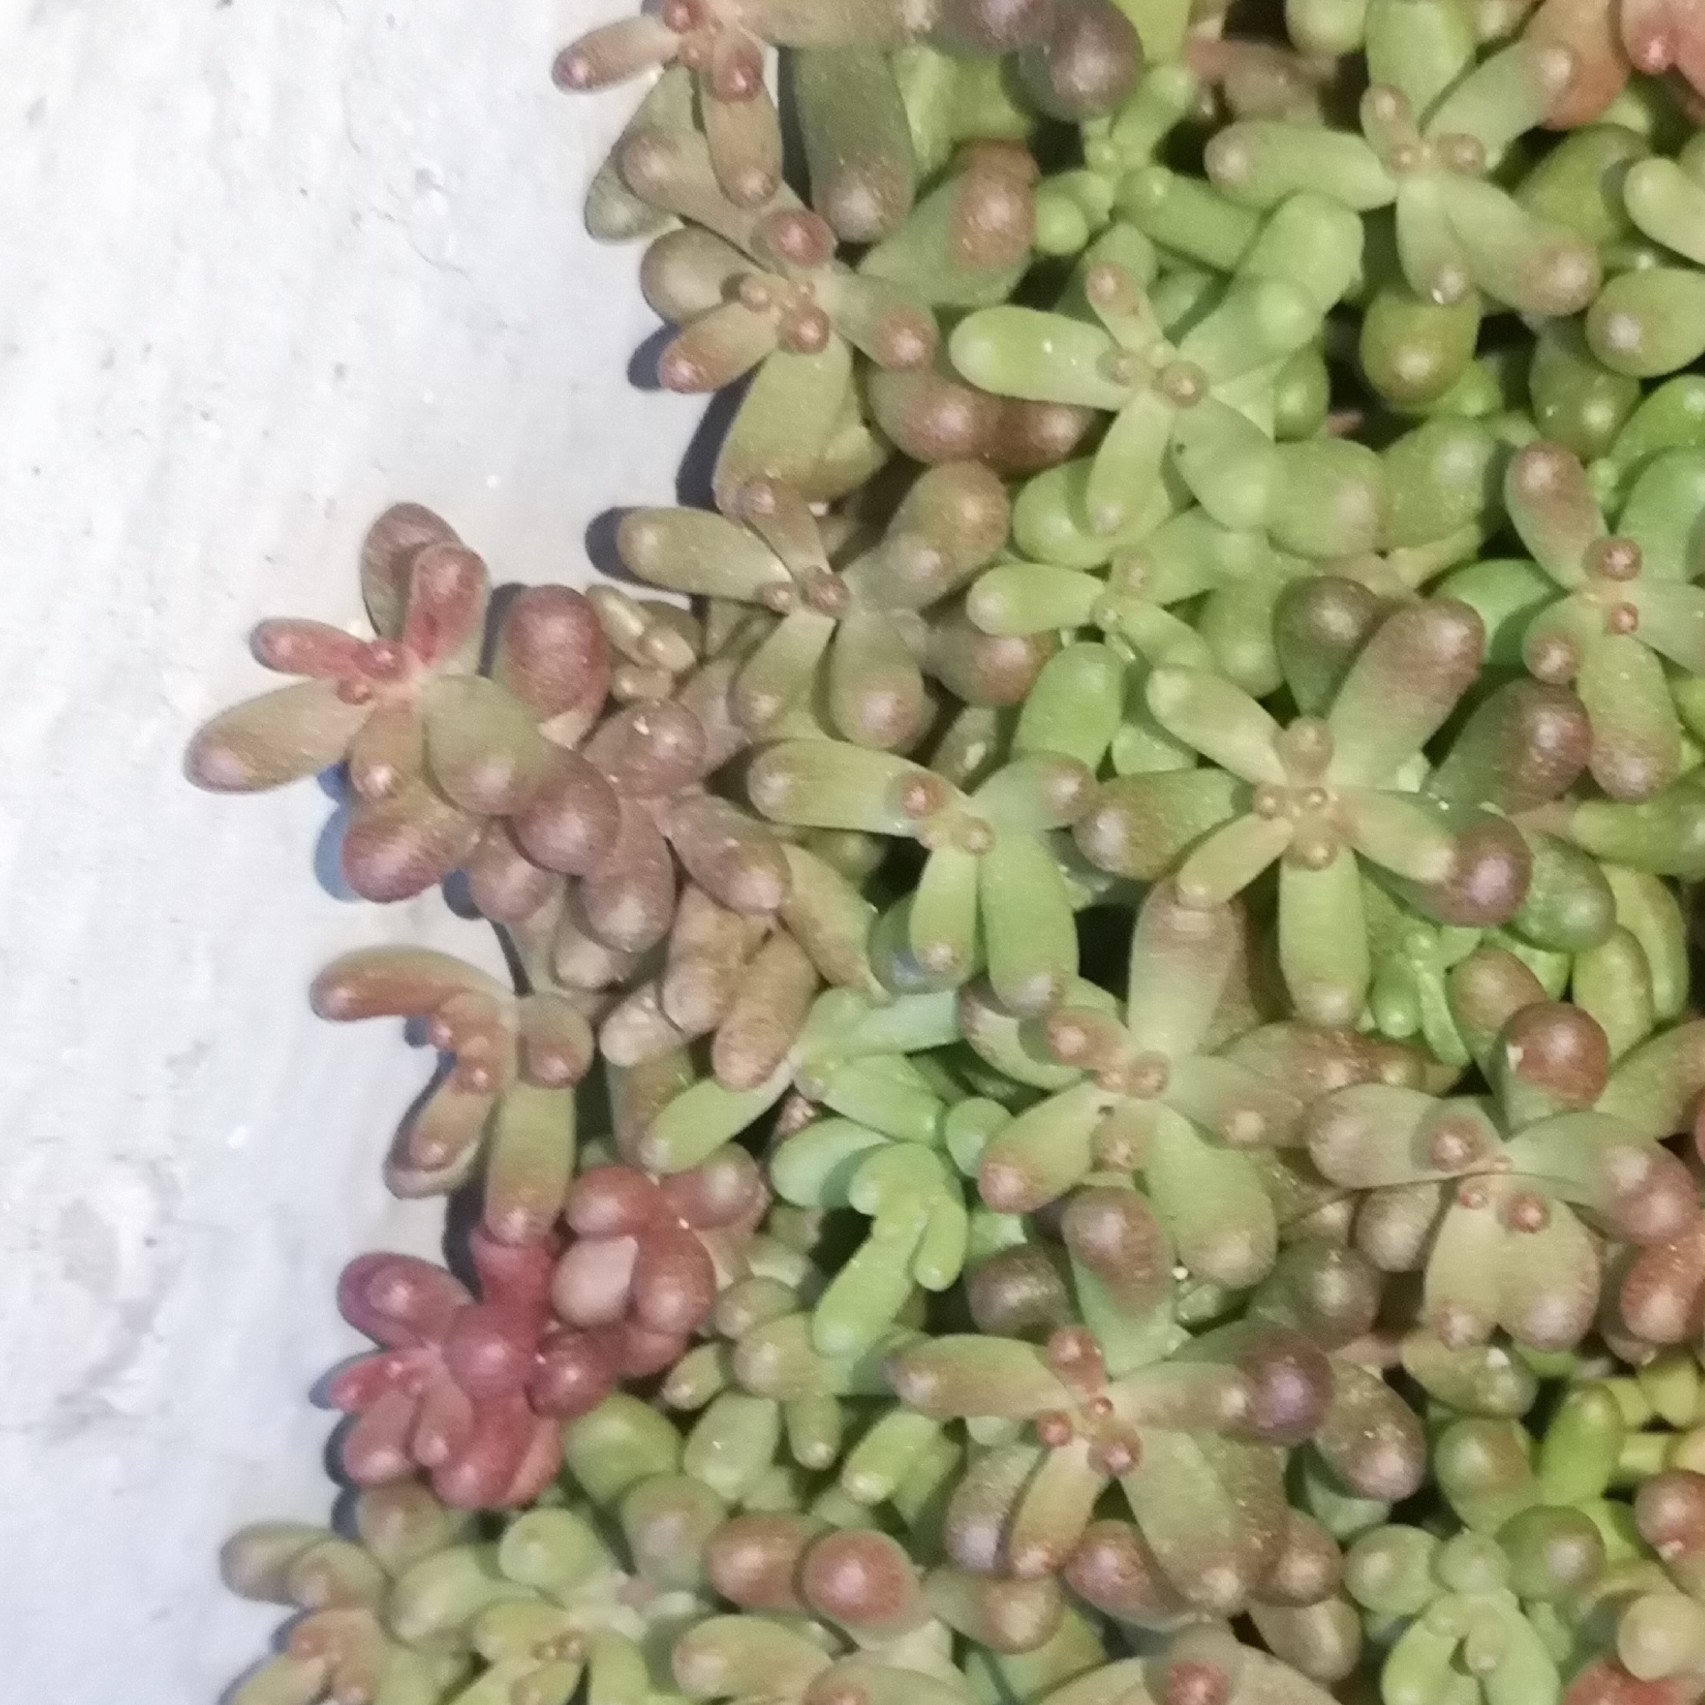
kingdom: Plantae
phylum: Tracheophyta
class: Magnoliopsida
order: Saxifragales
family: Crassulaceae
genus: Sedum
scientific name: Sedum album
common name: White stonecrop
